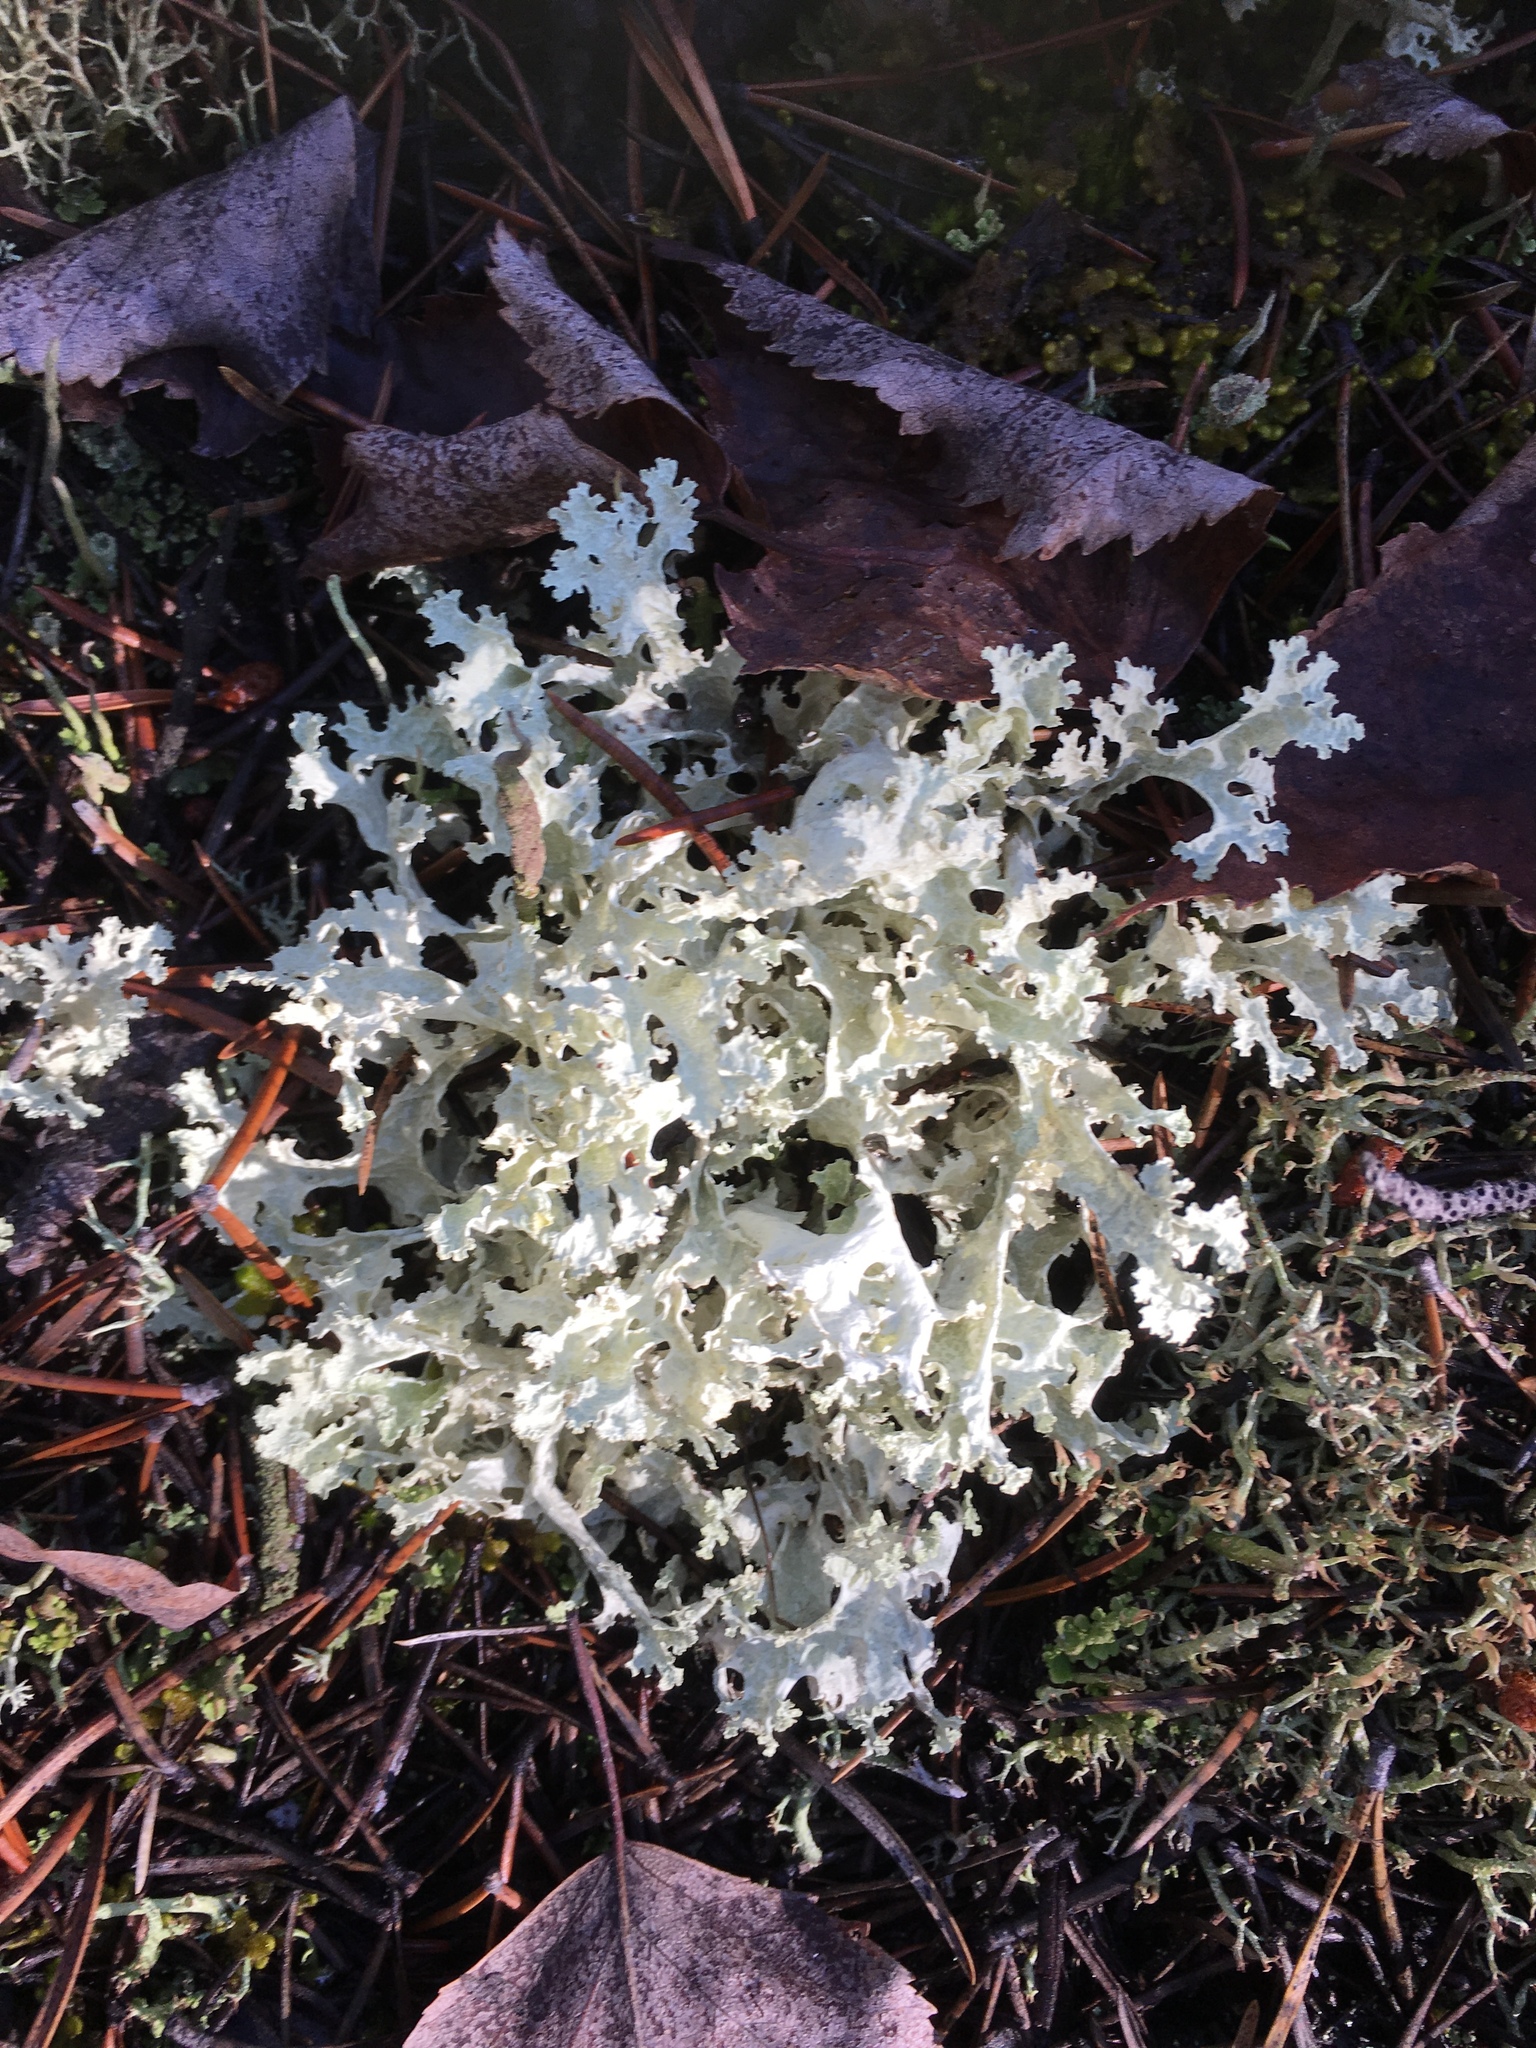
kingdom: Fungi
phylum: Ascomycota
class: Lecanoromycetes
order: Lecanorales
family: Parmeliaceae
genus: Nephromopsis
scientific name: Nephromopsis nivalis
